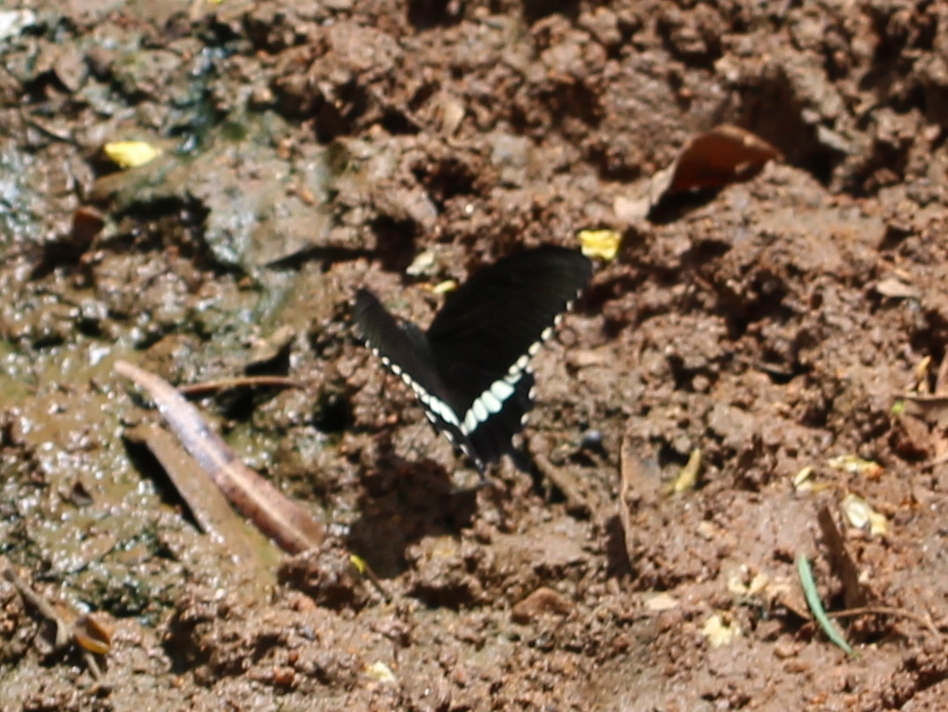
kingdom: Animalia
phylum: Arthropoda
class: Insecta
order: Lepidoptera
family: Papilionidae
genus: Papilio
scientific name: Papilio polytes
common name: Common mormon
